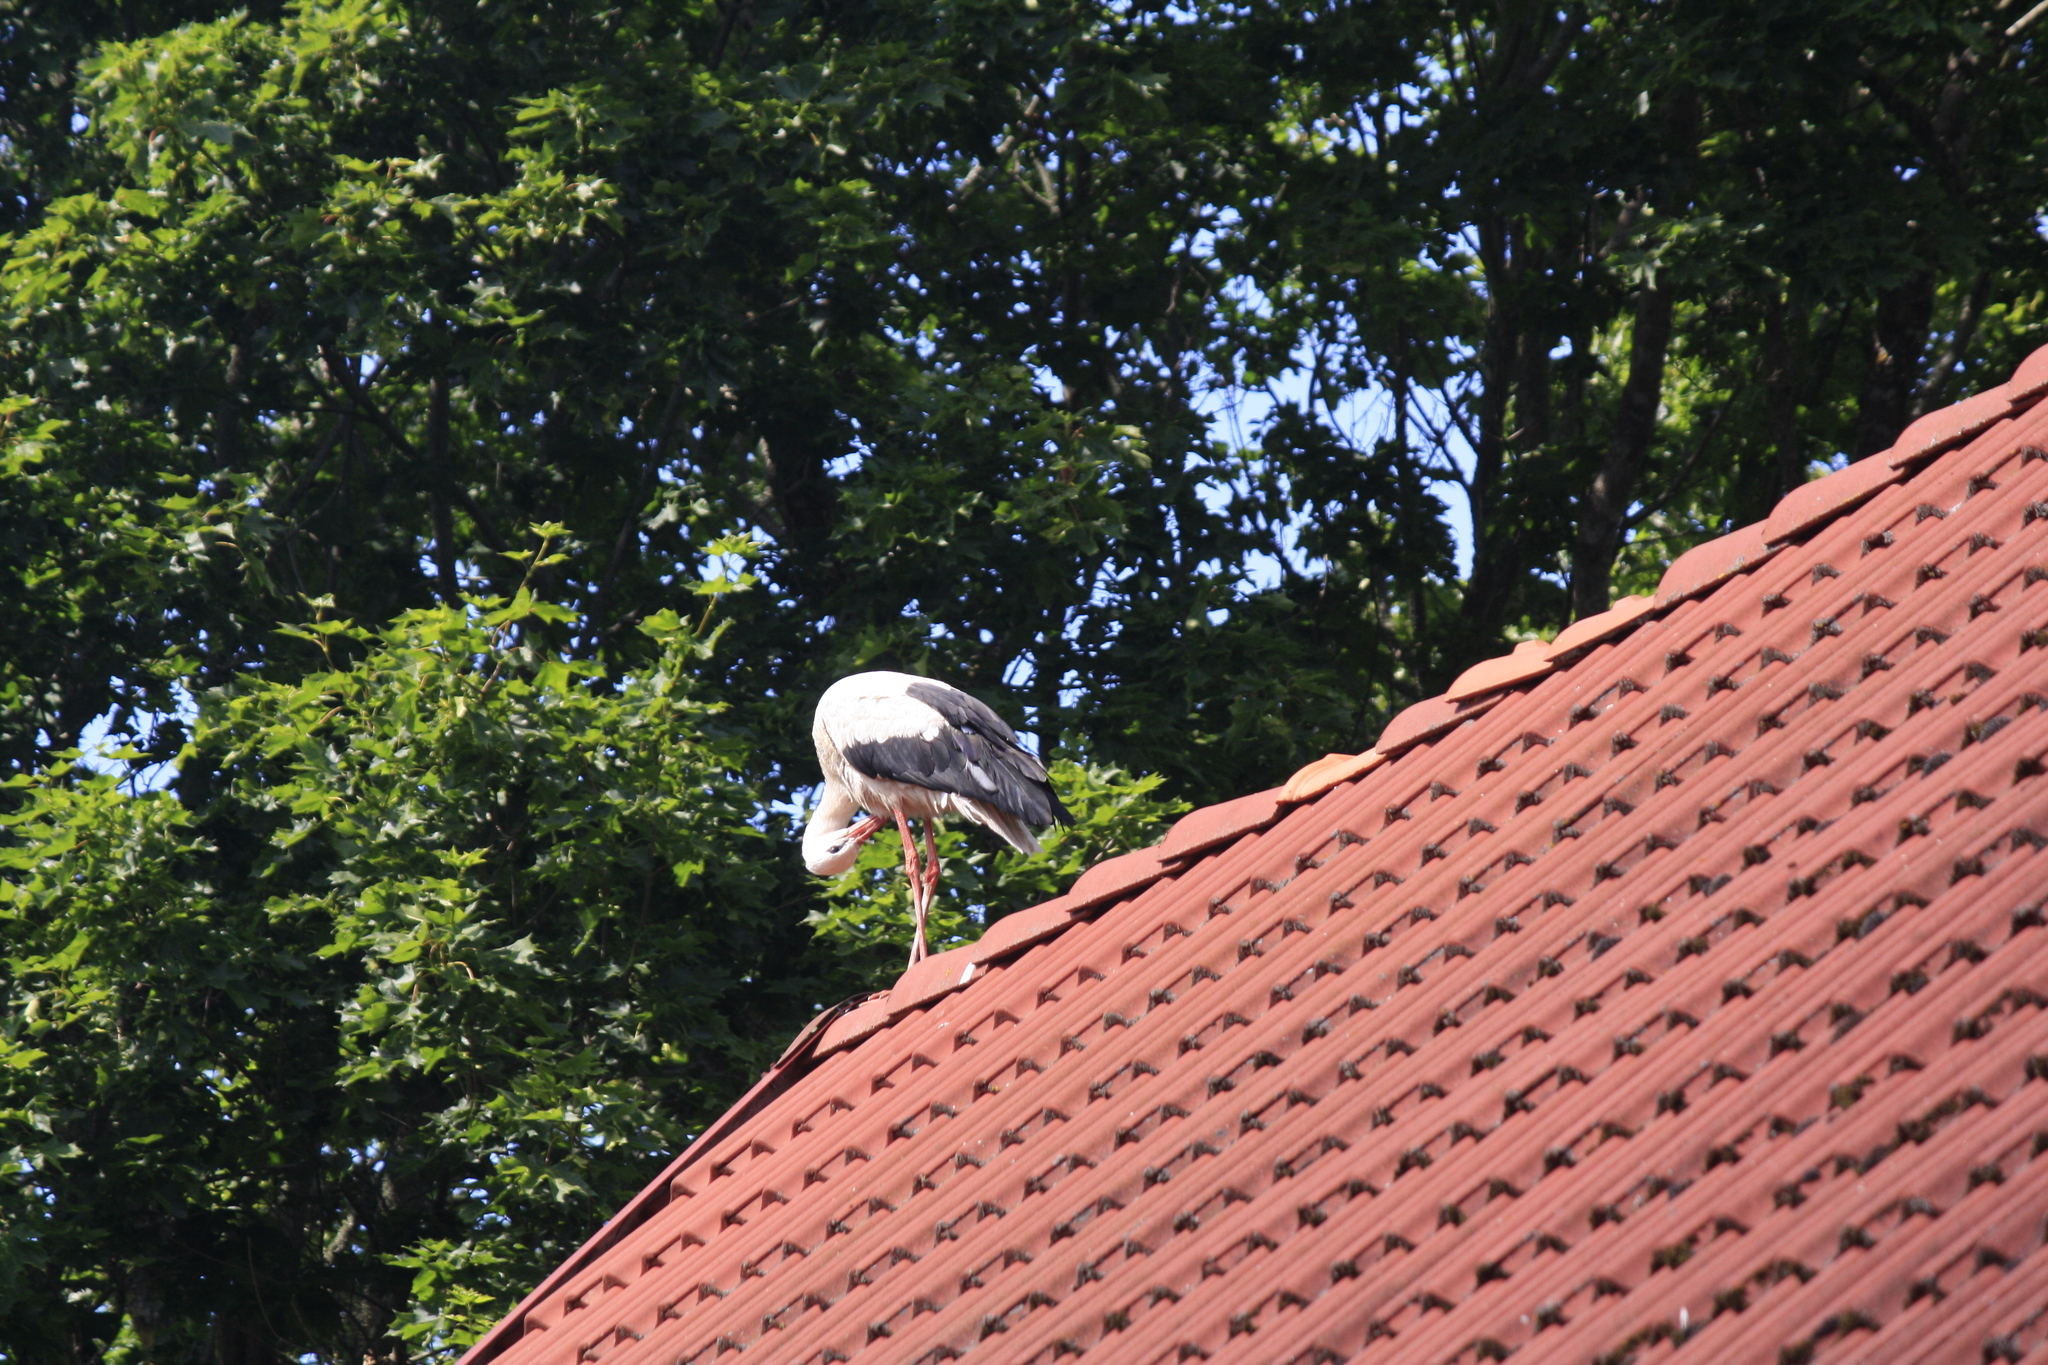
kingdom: Animalia
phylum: Chordata
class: Aves
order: Ciconiiformes
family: Ciconiidae
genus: Ciconia
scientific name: Ciconia ciconia
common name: White stork
